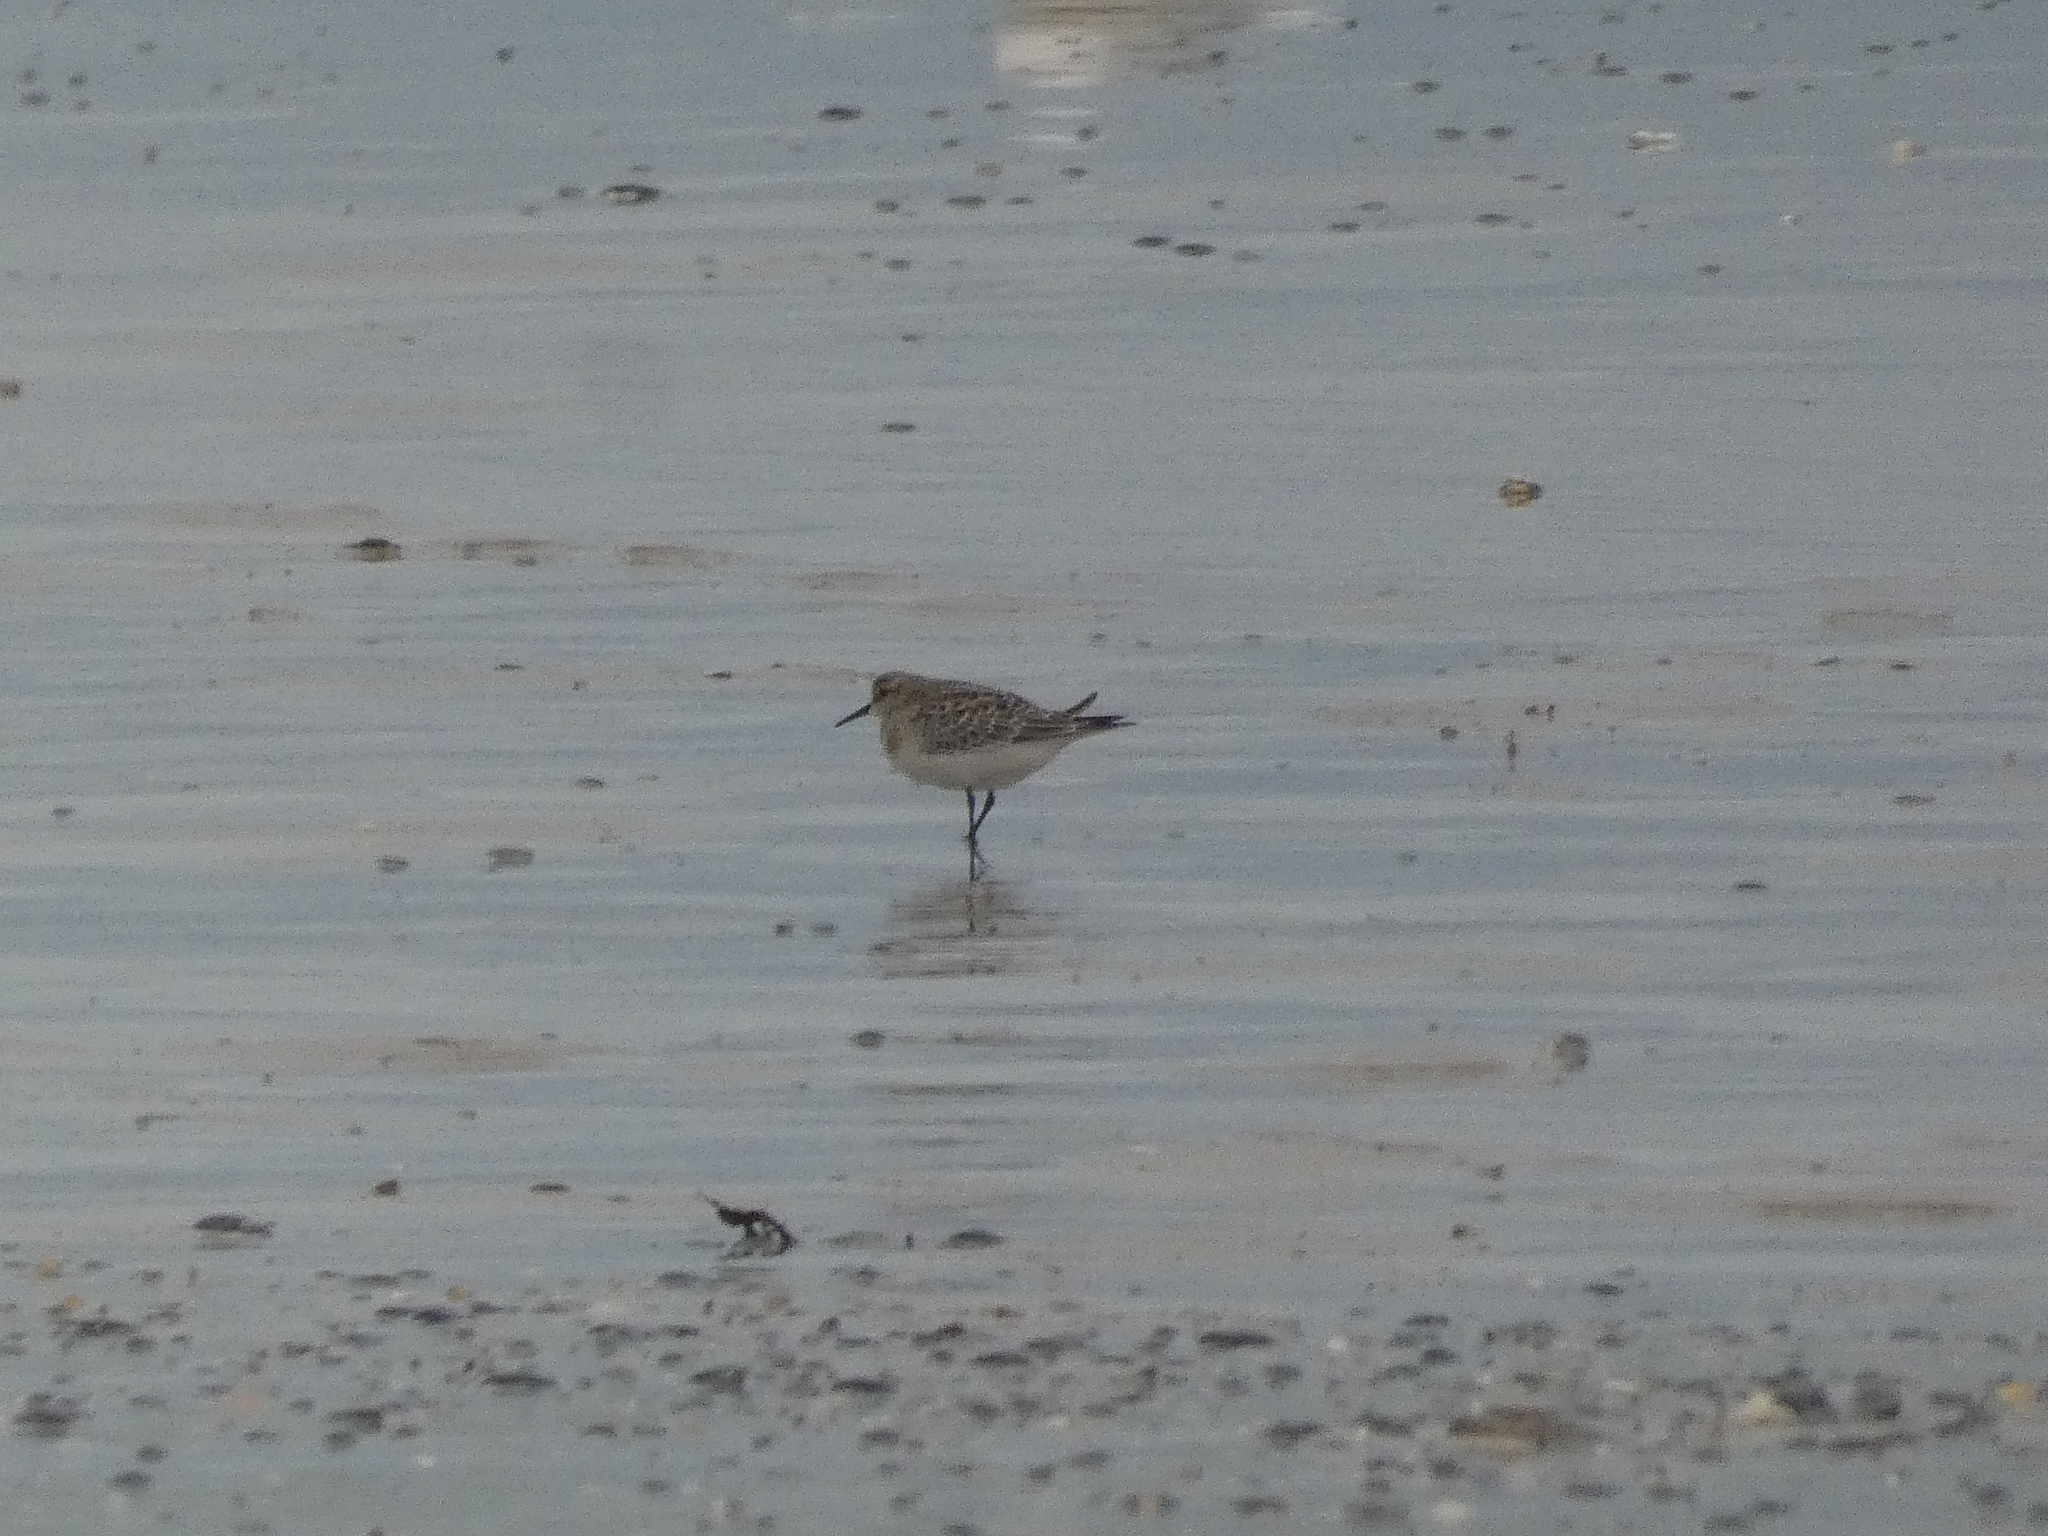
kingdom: Animalia
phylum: Chordata
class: Aves
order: Charadriiformes
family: Scolopacidae
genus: Calidris
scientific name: Calidris bairdii
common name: Baird's sandpiper
